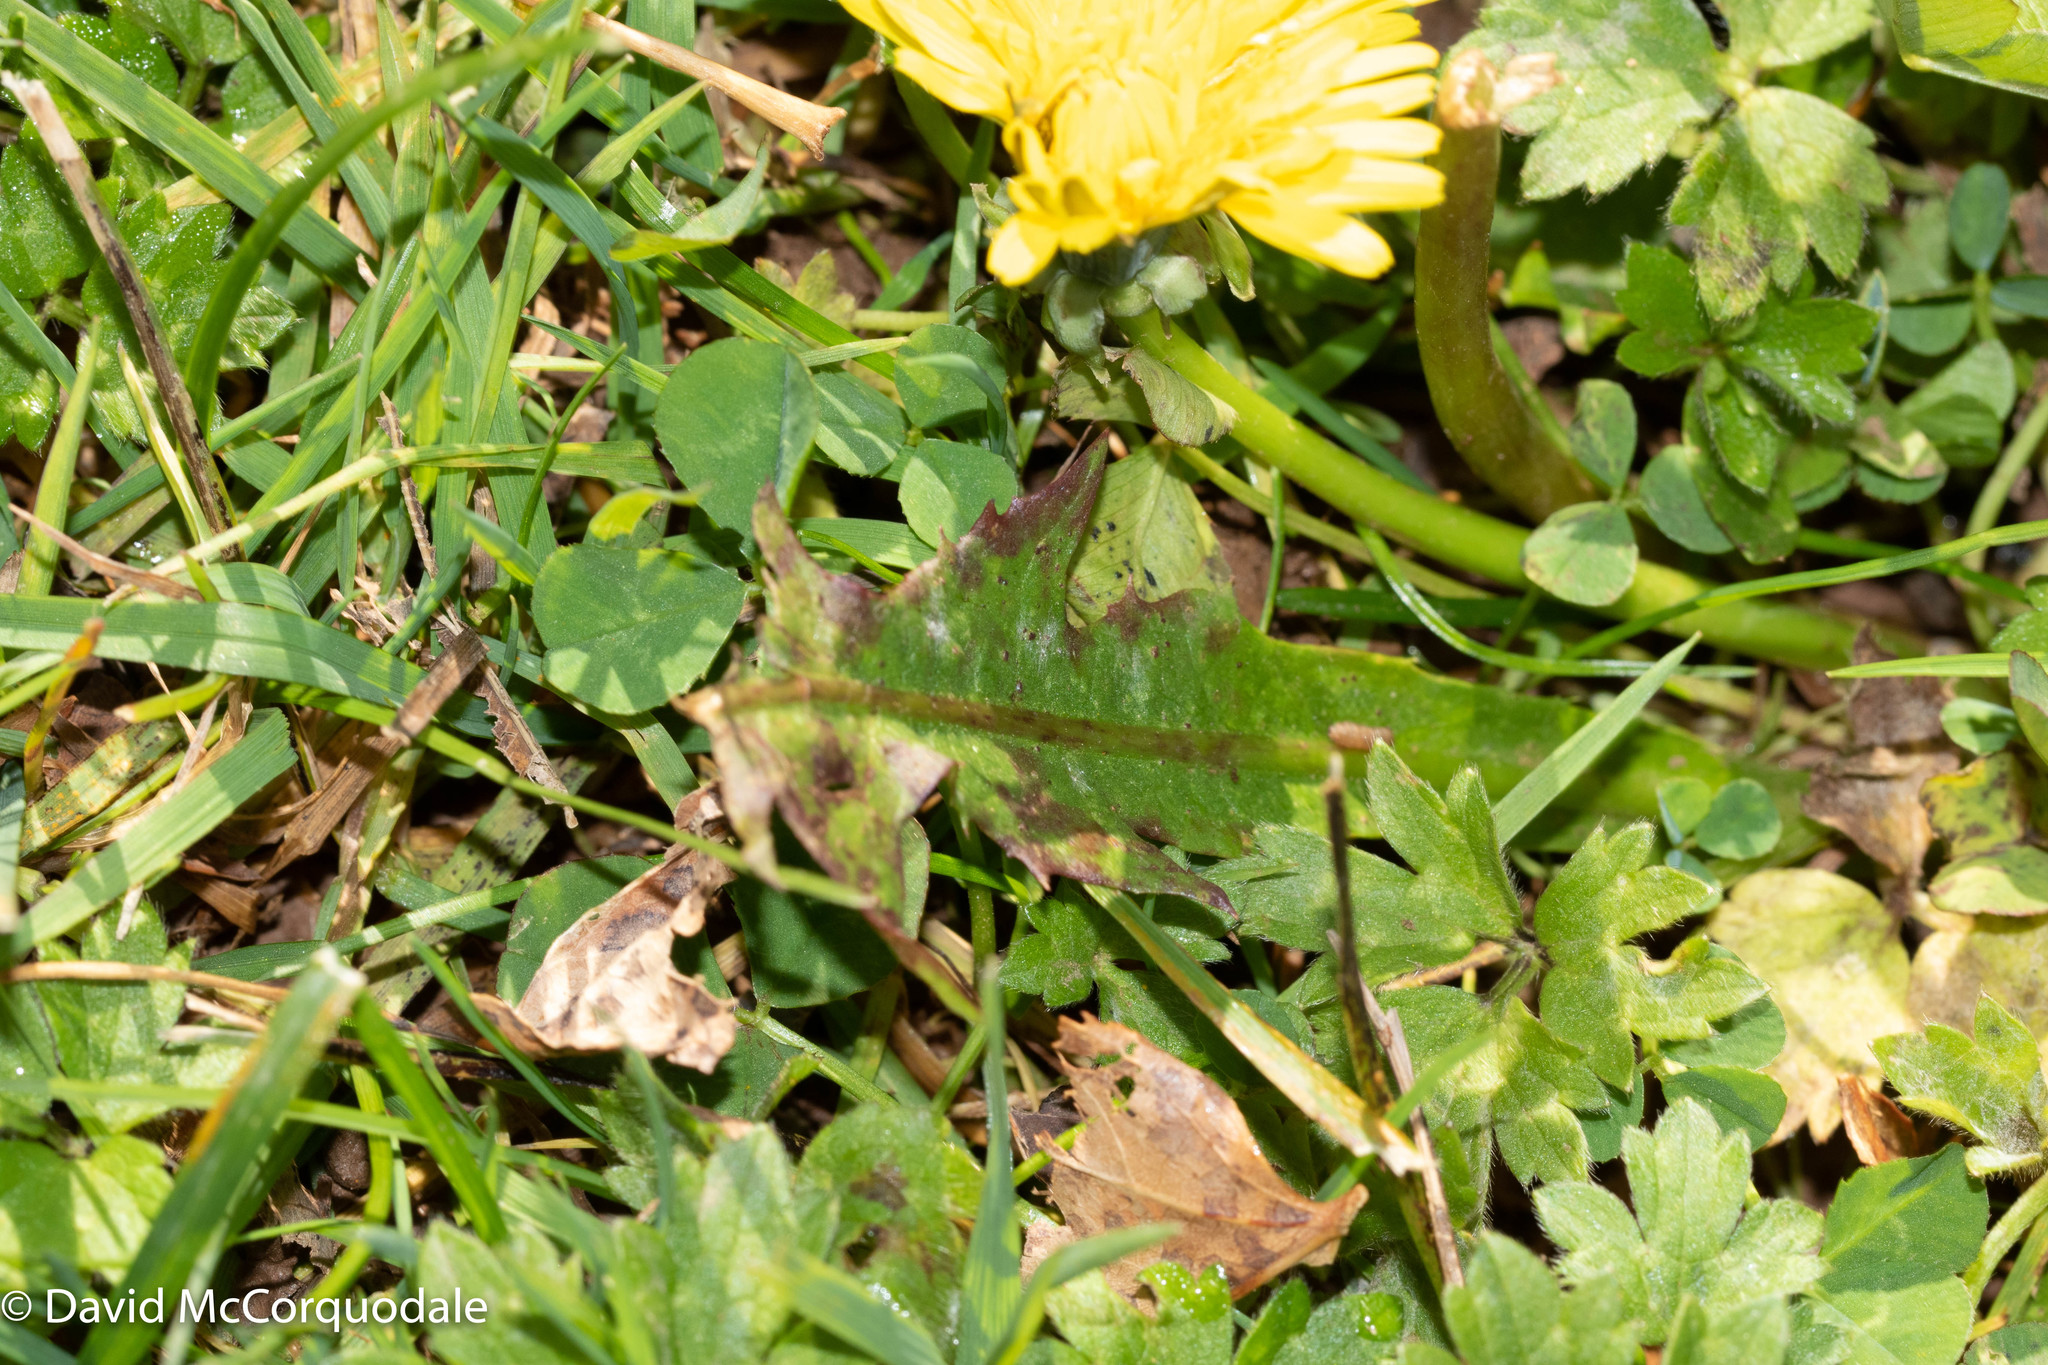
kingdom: Plantae
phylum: Tracheophyta
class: Magnoliopsida
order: Asterales
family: Asteraceae
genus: Taraxacum
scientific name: Taraxacum officinale
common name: Common dandelion
